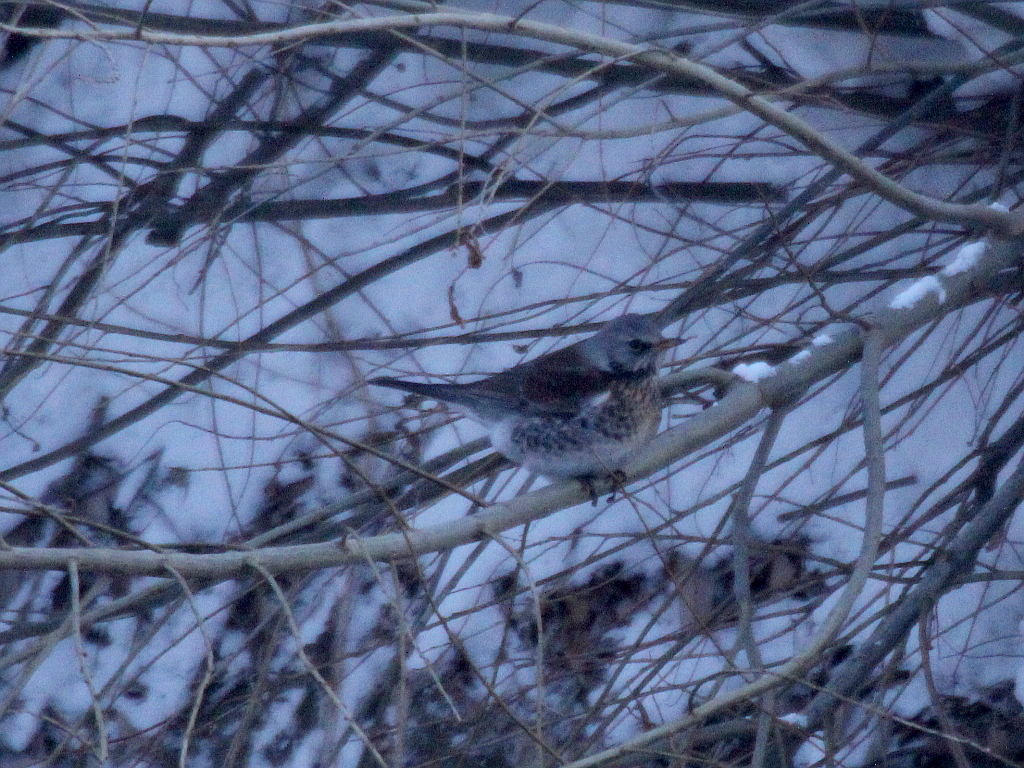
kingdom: Animalia
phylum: Chordata
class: Aves
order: Passeriformes
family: Turdidae
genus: Turdus
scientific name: Turdus pilaris
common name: Fieldfare
